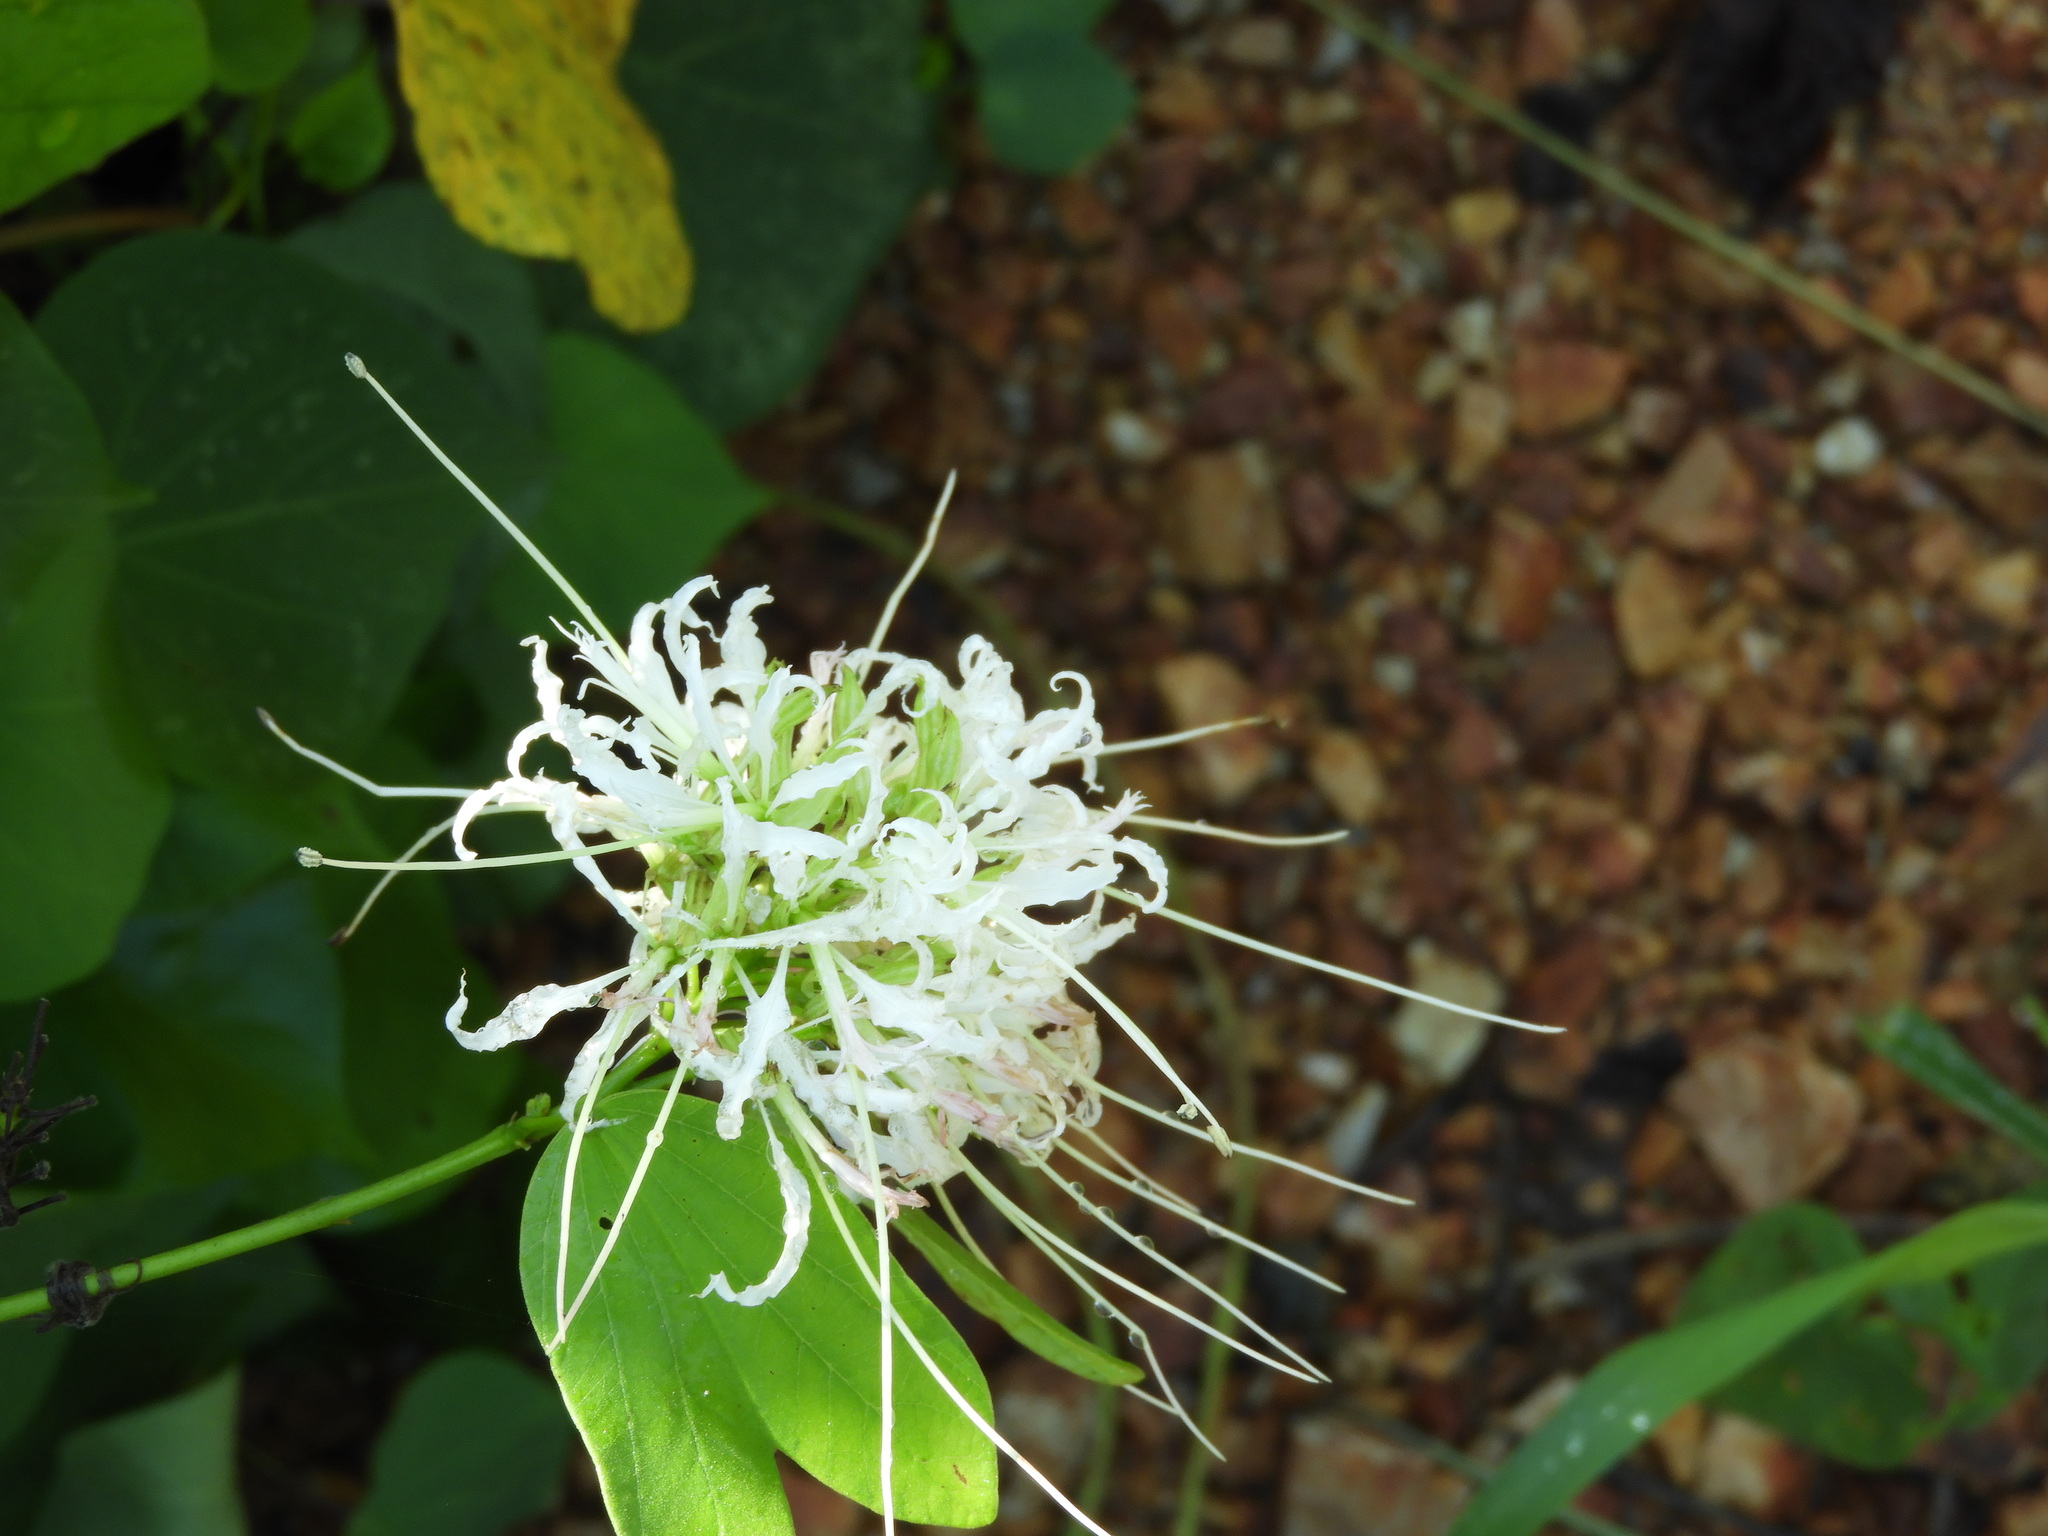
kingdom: Plantae
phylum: Tracheophyta
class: Magnoliopsida
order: Fabales
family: Fabaceae
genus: Bauhinia
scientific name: Bauhinia divaricata
